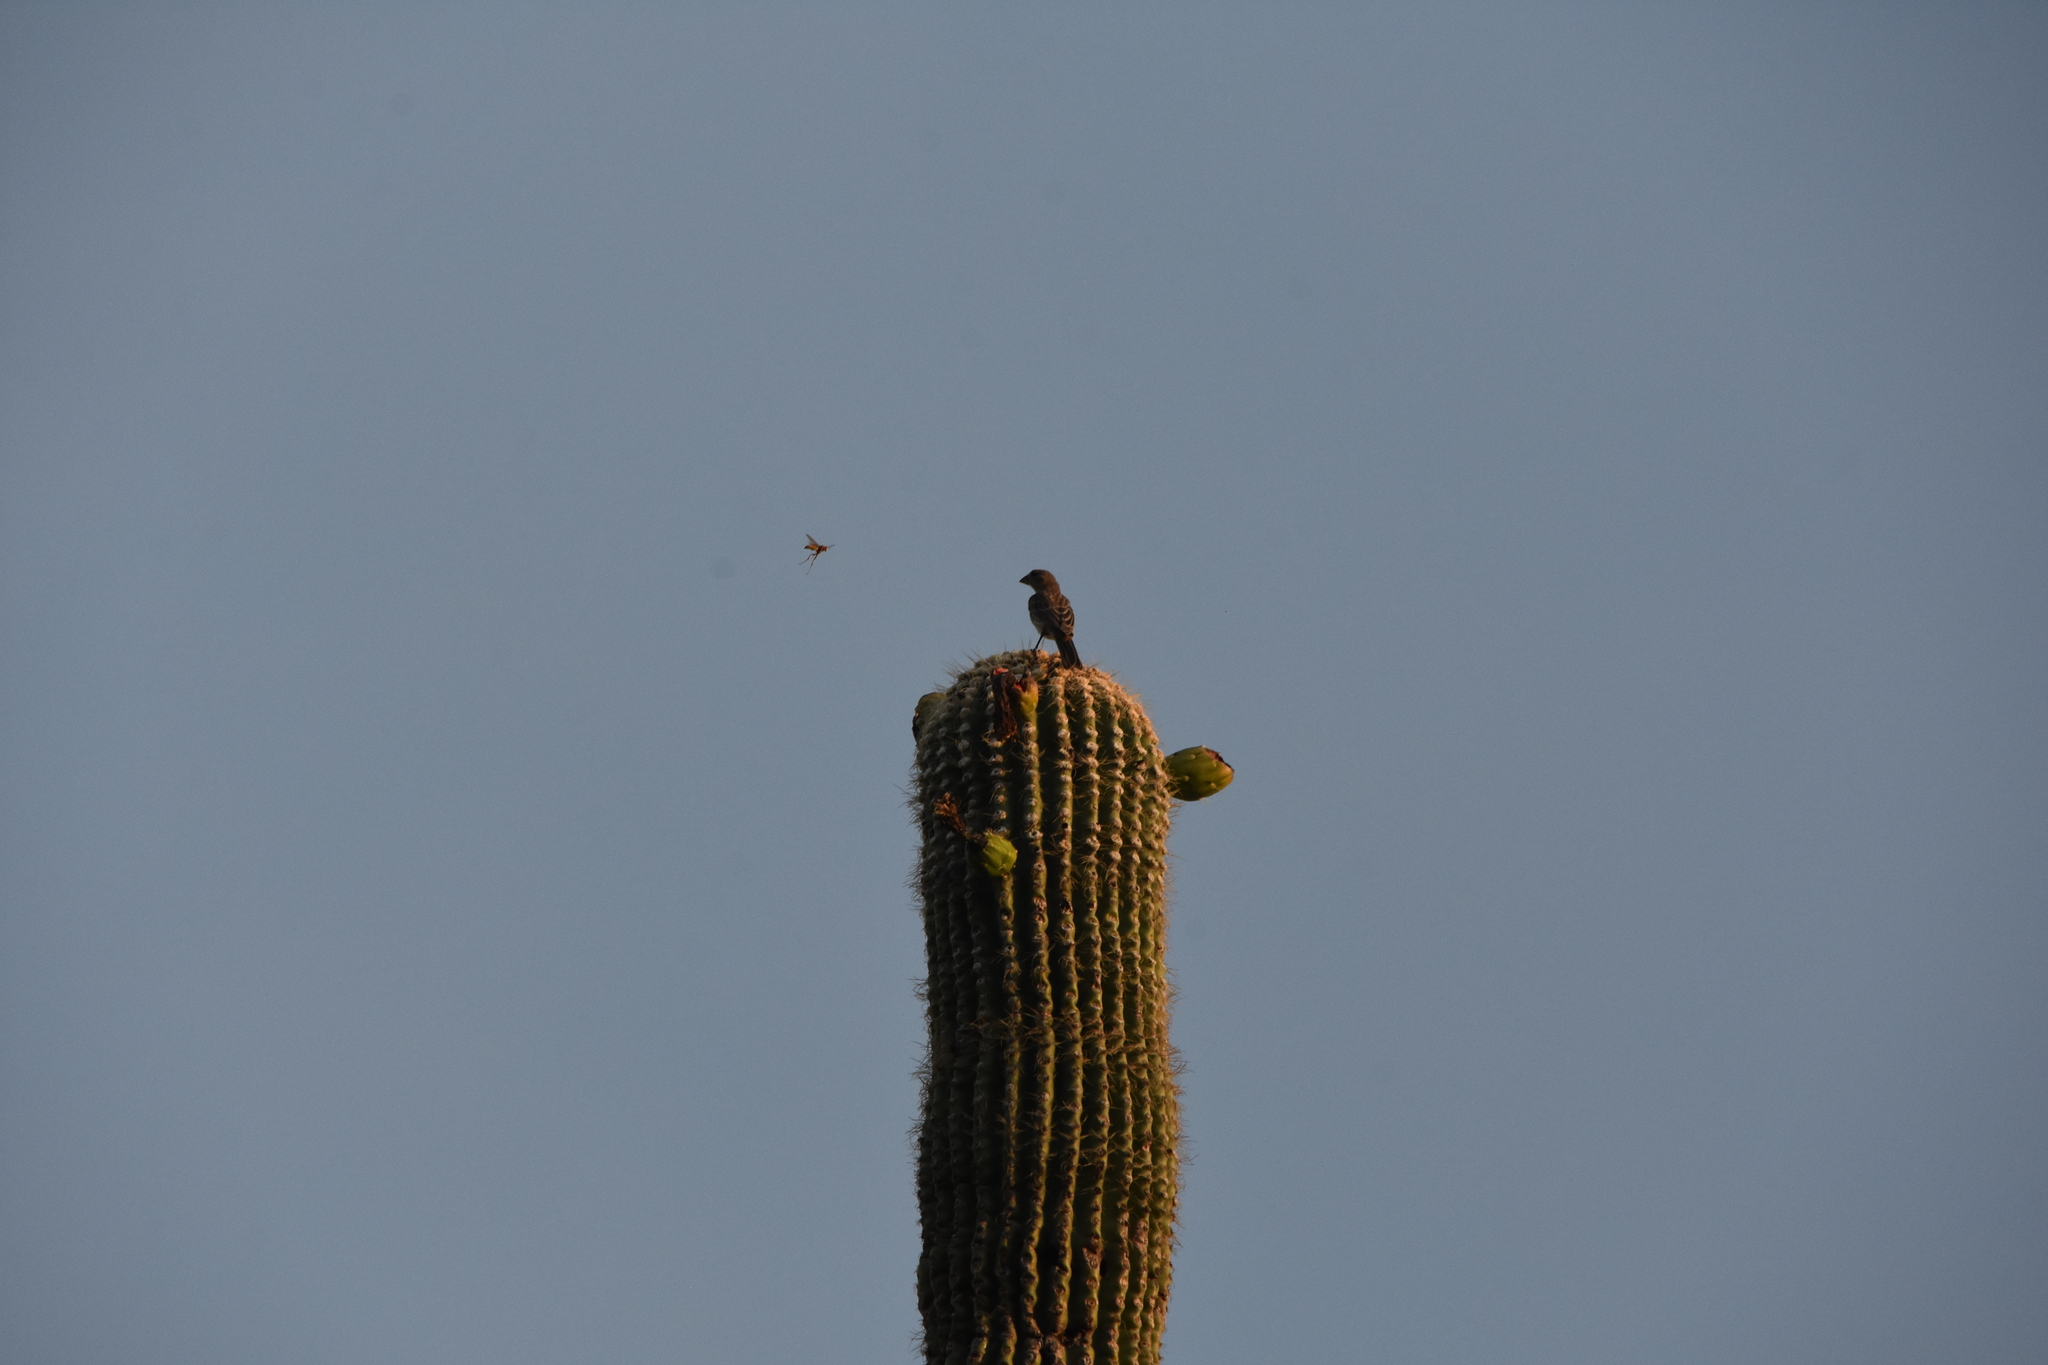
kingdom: Animalia
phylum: Chordata
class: Aves
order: Passeriformes
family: Fringillidae
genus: Haemorhous
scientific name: Haemorhous mexicanus
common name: House finch
